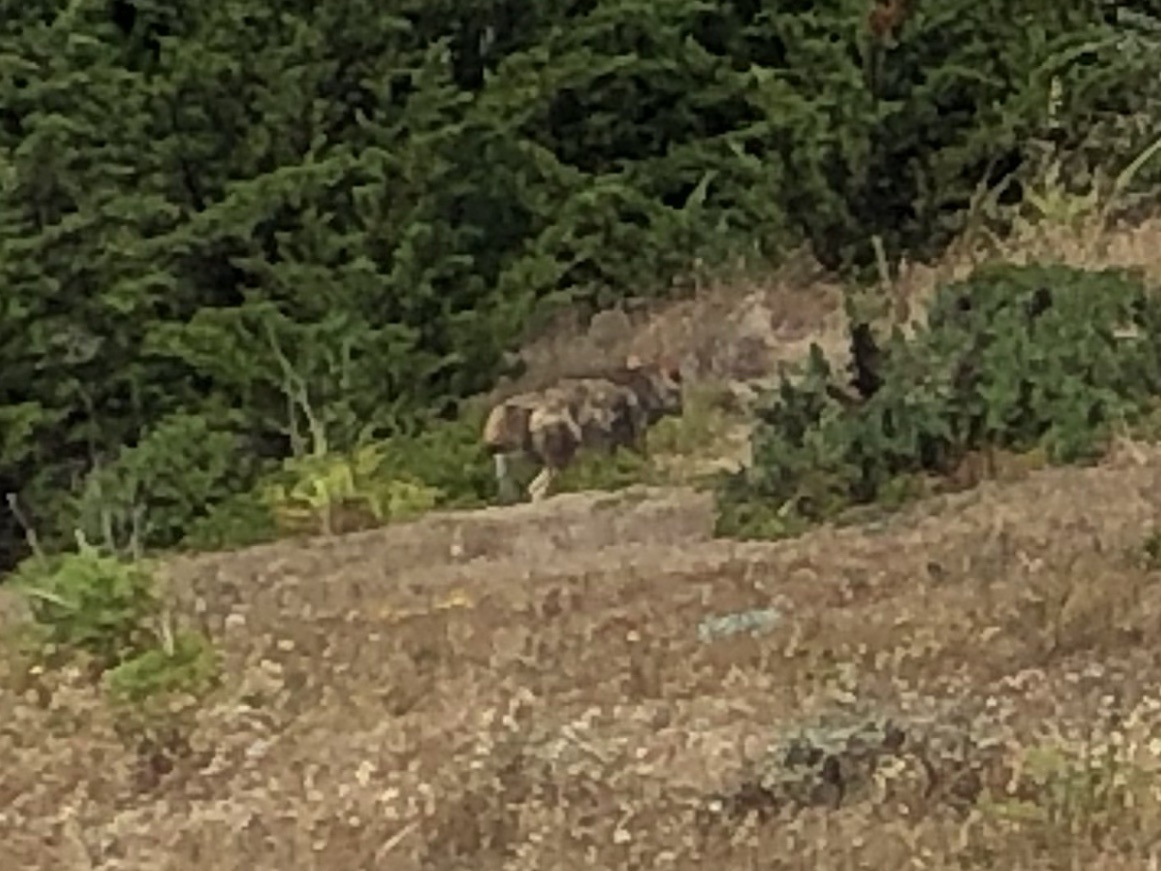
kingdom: Animalia
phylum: Chordata
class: Mammalia
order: Carnivora
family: Canidae
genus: Canis
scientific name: Canis latrans
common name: Coyote
